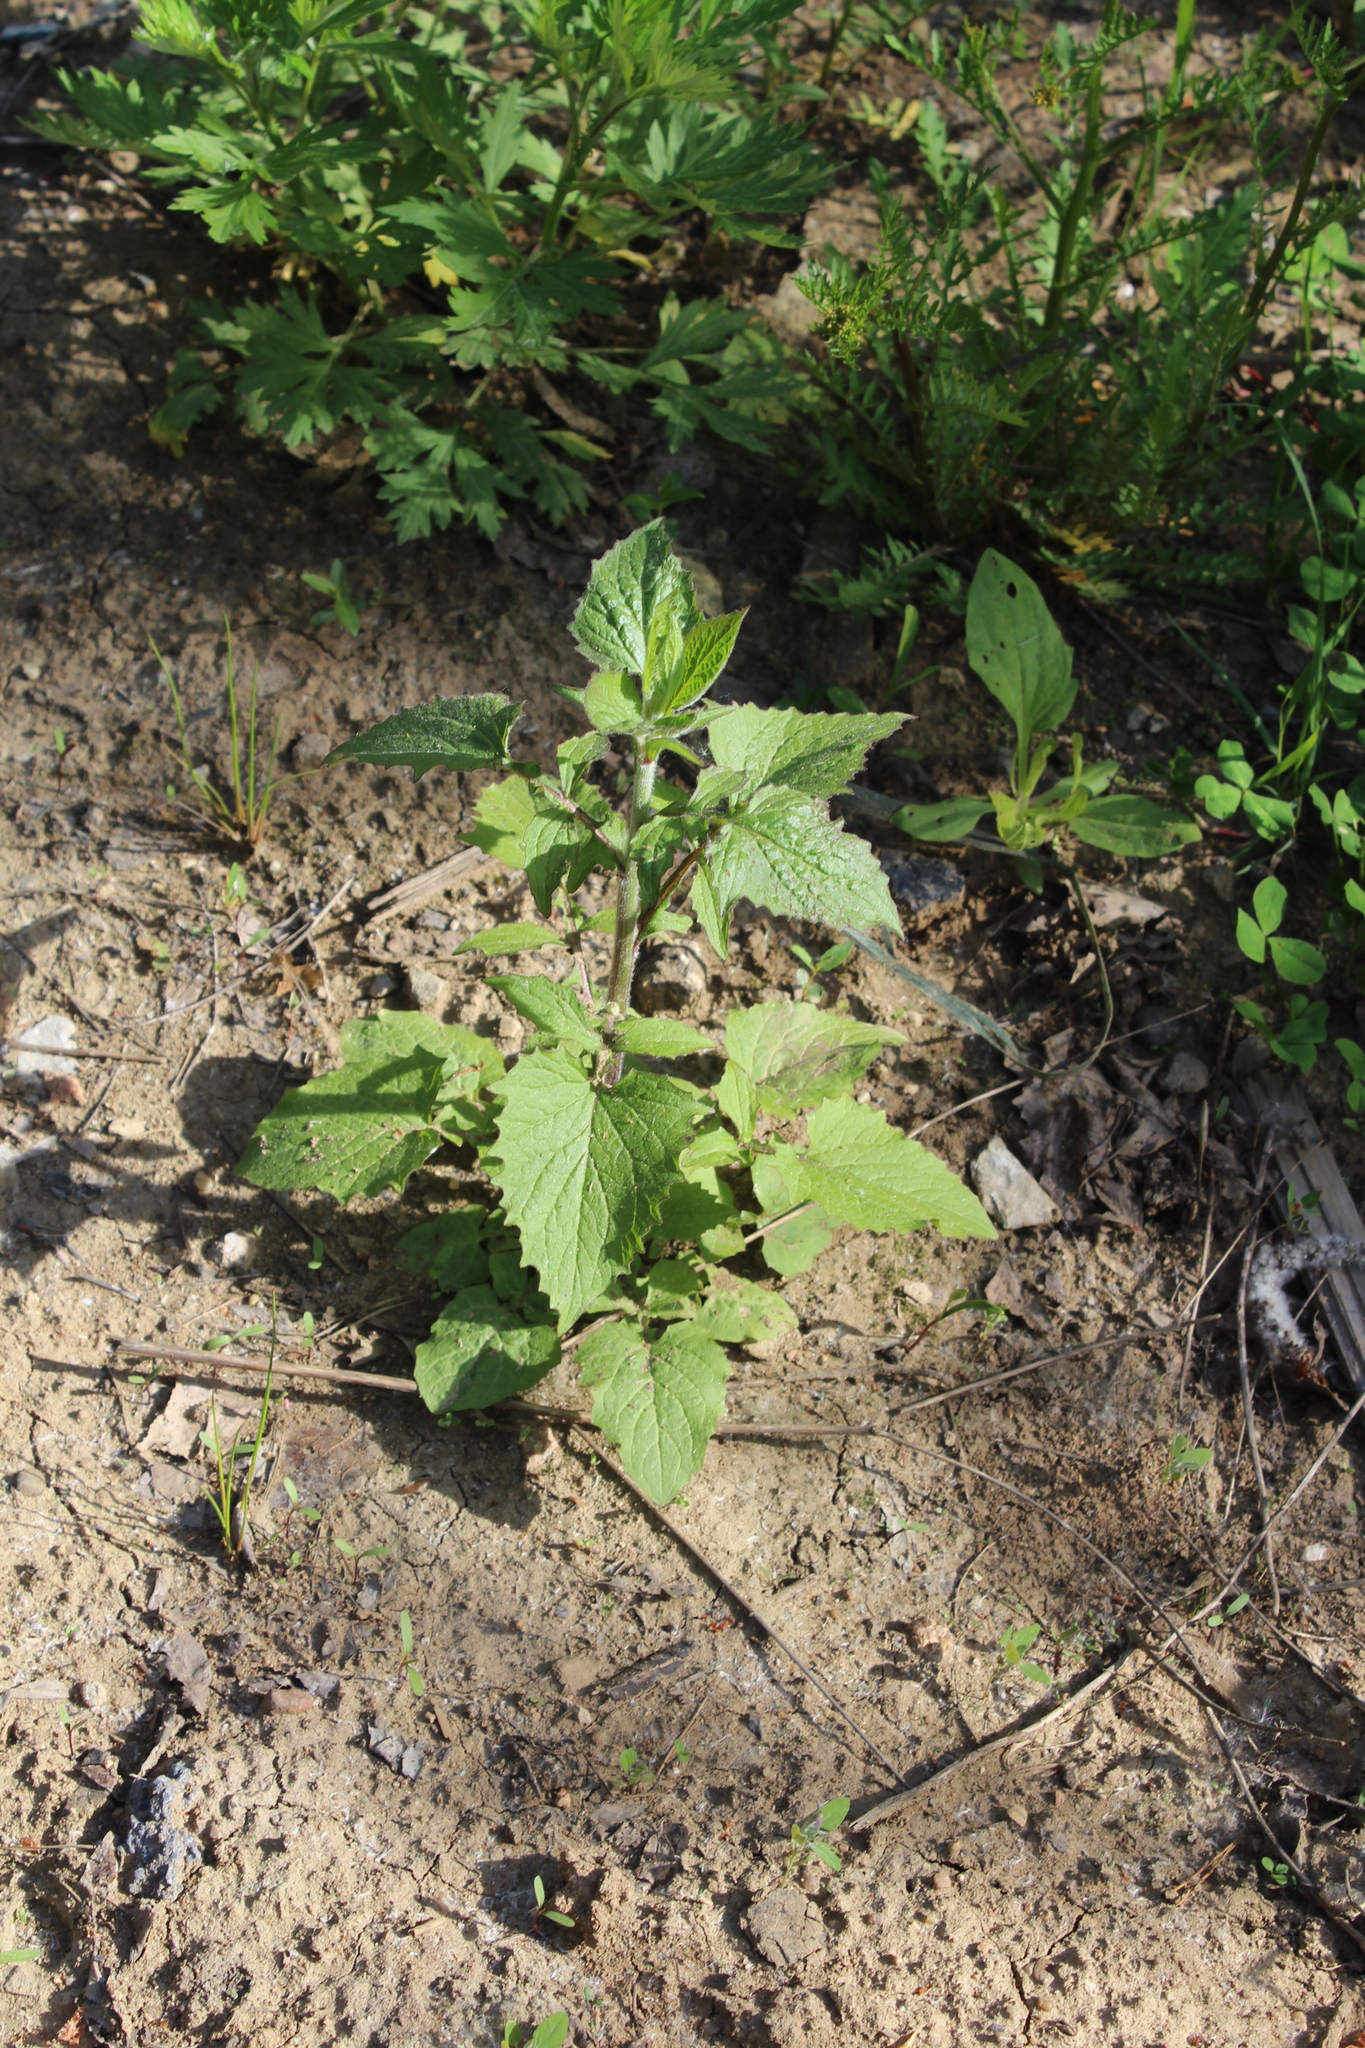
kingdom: Plantae
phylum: Tracheophyta
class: Magnoliopsida
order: Asterales
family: Asteraceae
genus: Lapsana
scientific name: Lapsana communis
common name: Nipplewort
